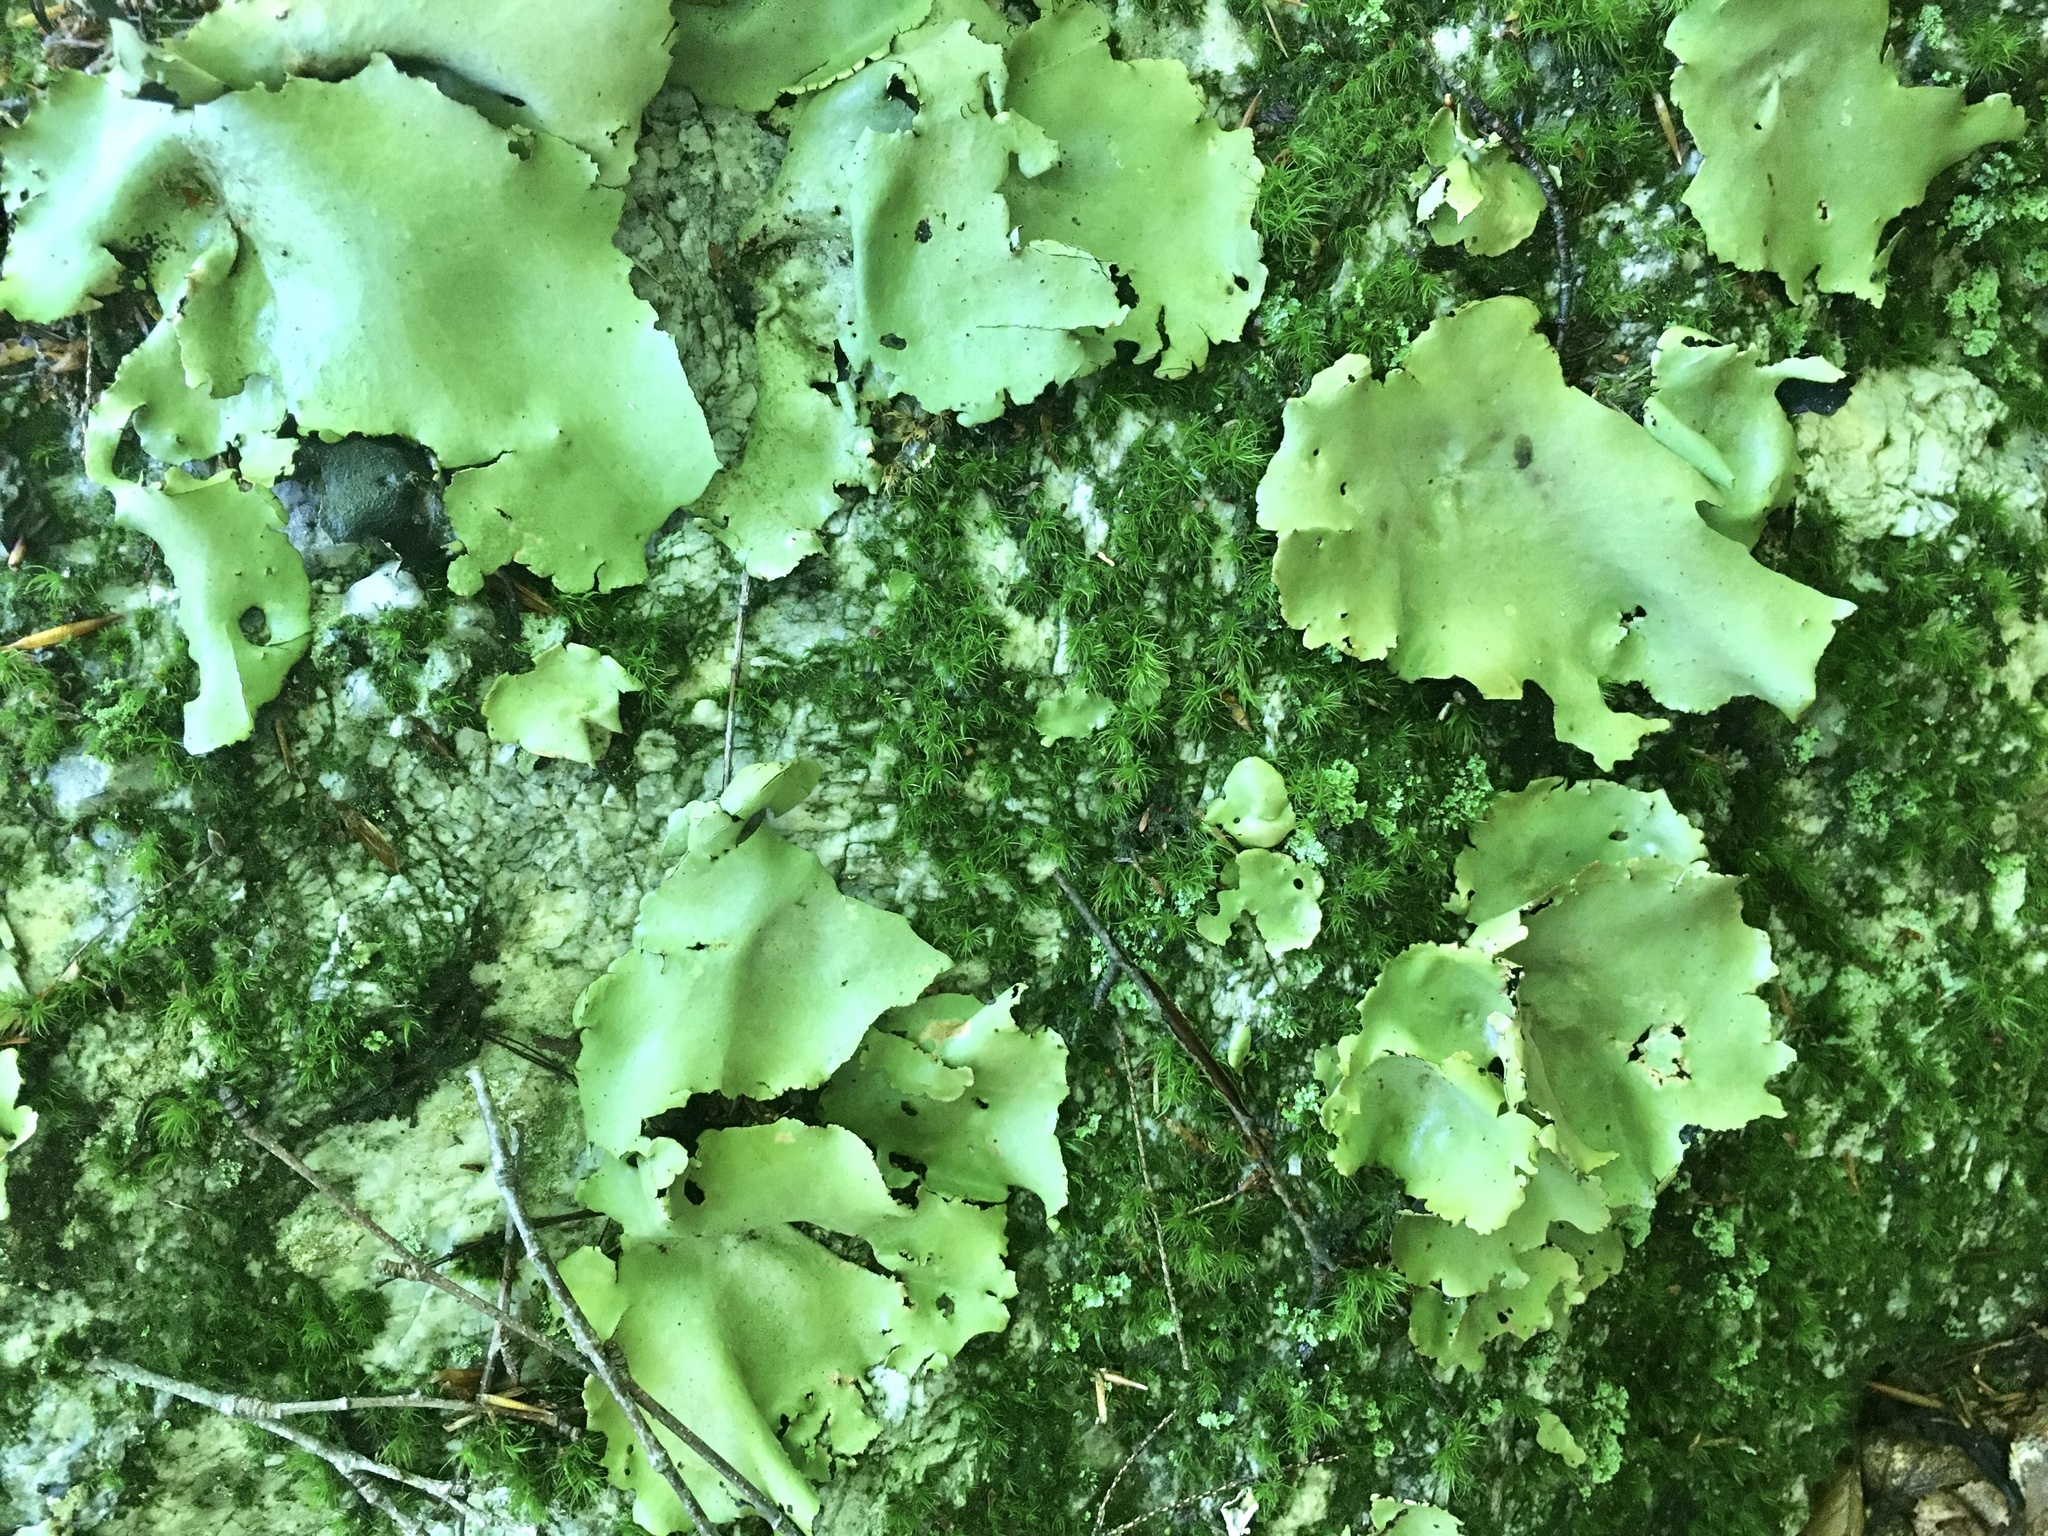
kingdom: Fungi
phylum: Ascomycota
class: Lecanoromycetes
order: Umbilicariales
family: Umbilicariaceae
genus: Umbilicaria
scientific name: Umbilicaria mammulata
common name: Smooth rock tripe
